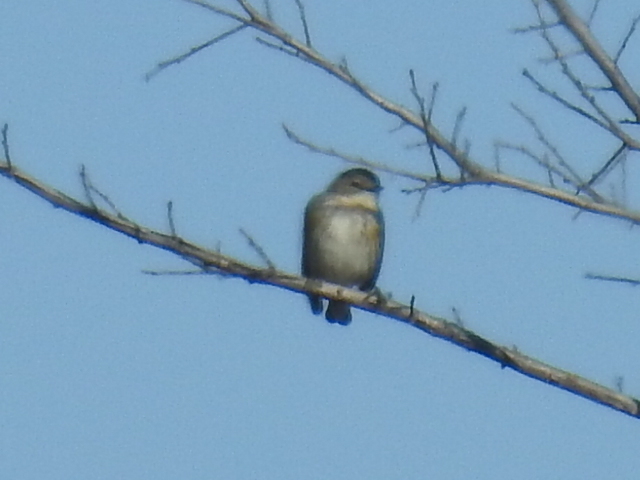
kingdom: Animalia
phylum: Chordata
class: Aves
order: Passeriformes
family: Parulidae
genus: Setophaga
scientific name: Setophaga coronata
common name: Myrtle warbler
